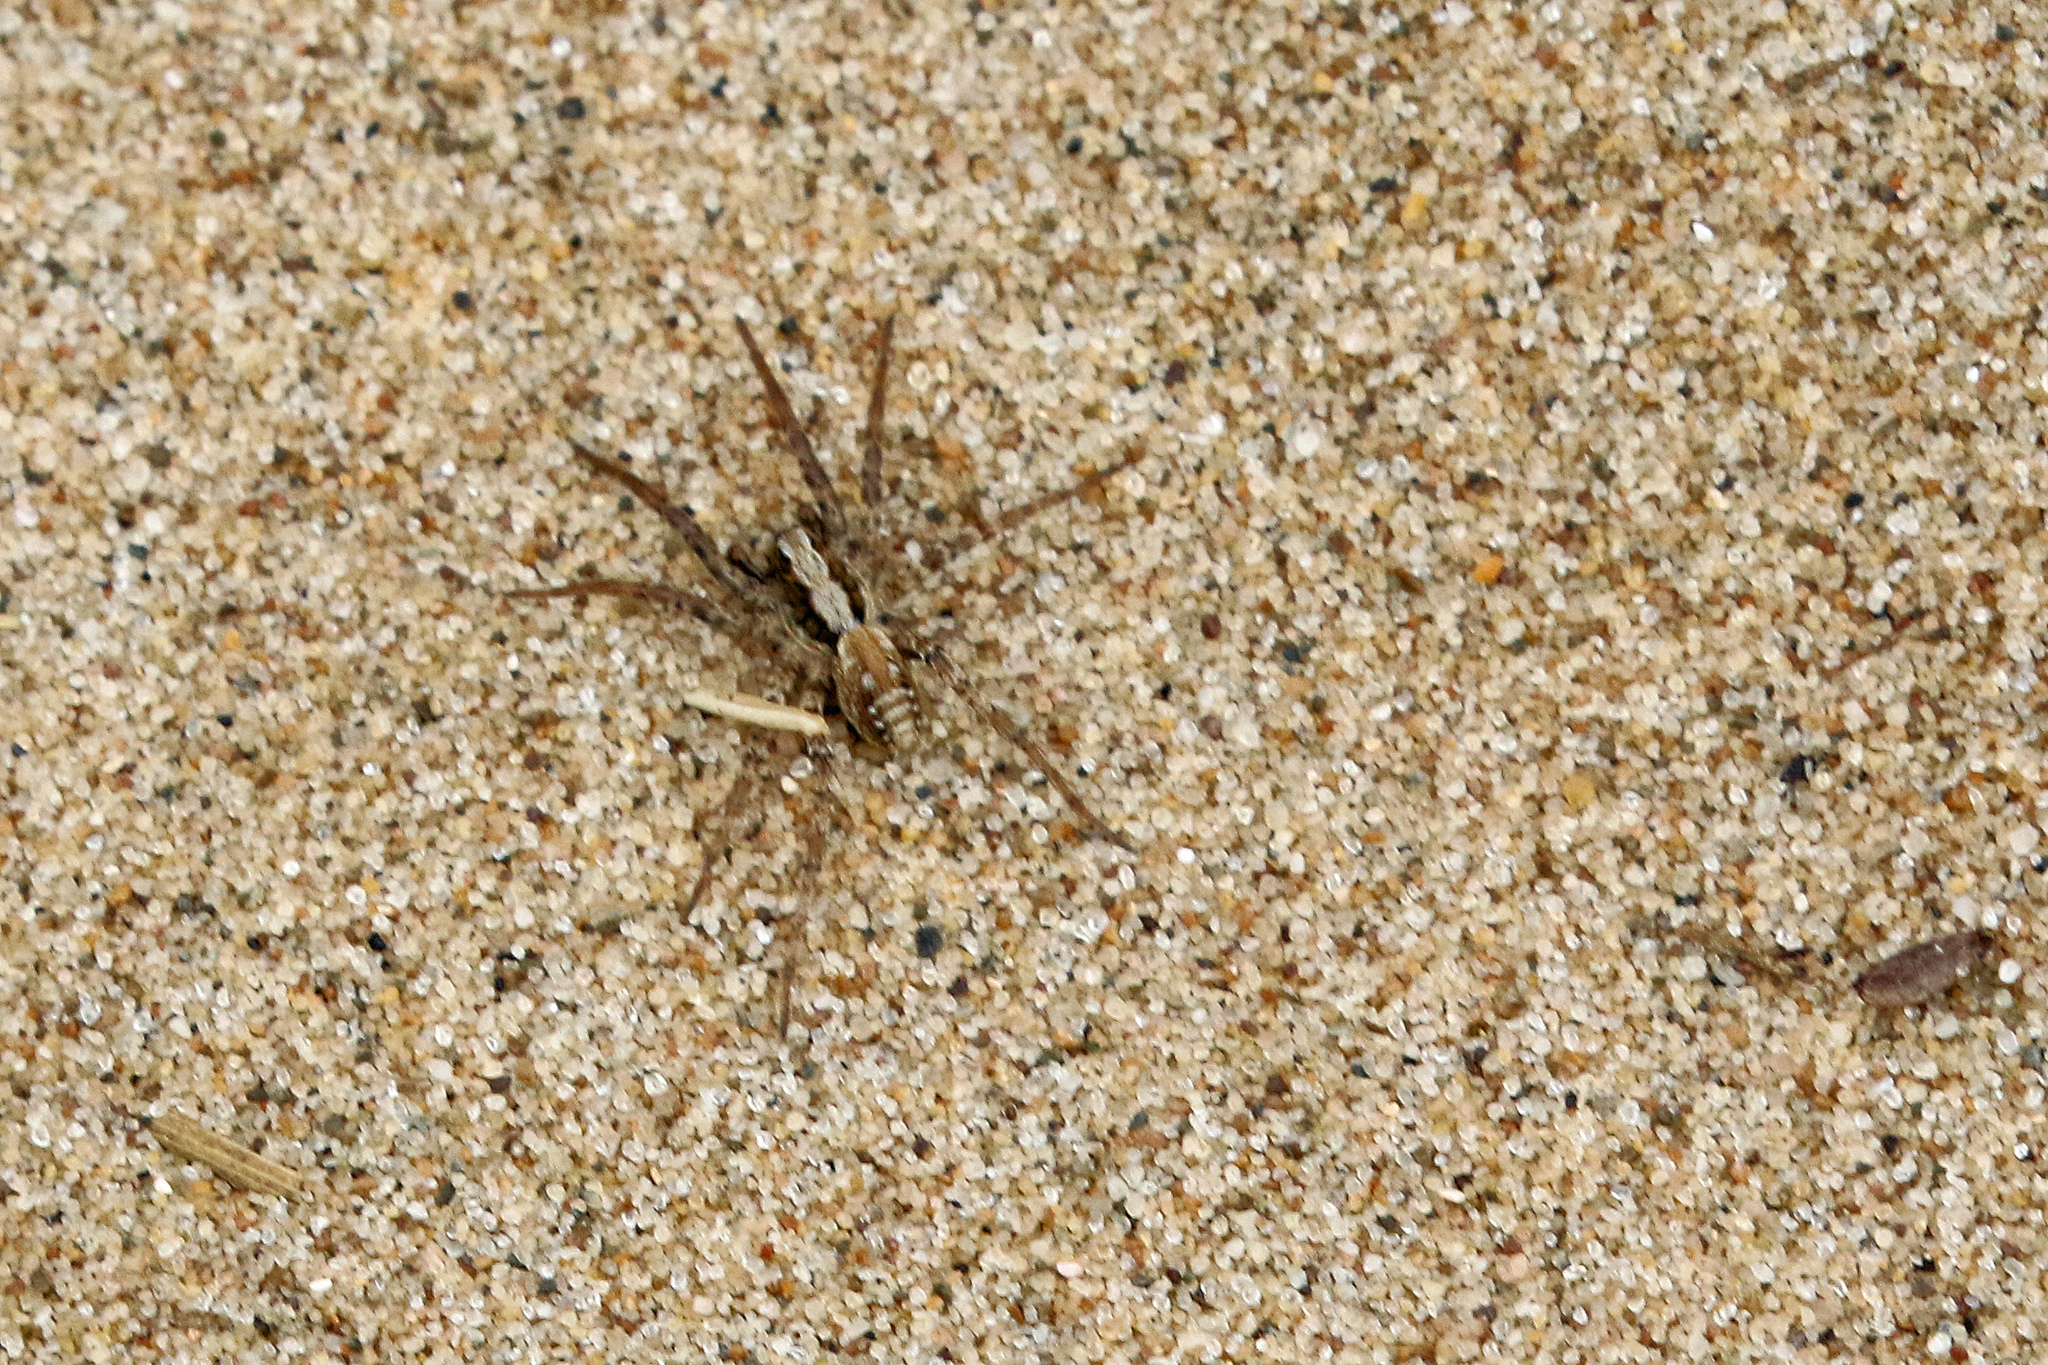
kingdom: Animalia
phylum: Arthropoda
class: Arachnida
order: Araneae
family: Lycosidae
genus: Xerolycosa
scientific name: Xerolycosa miniata
